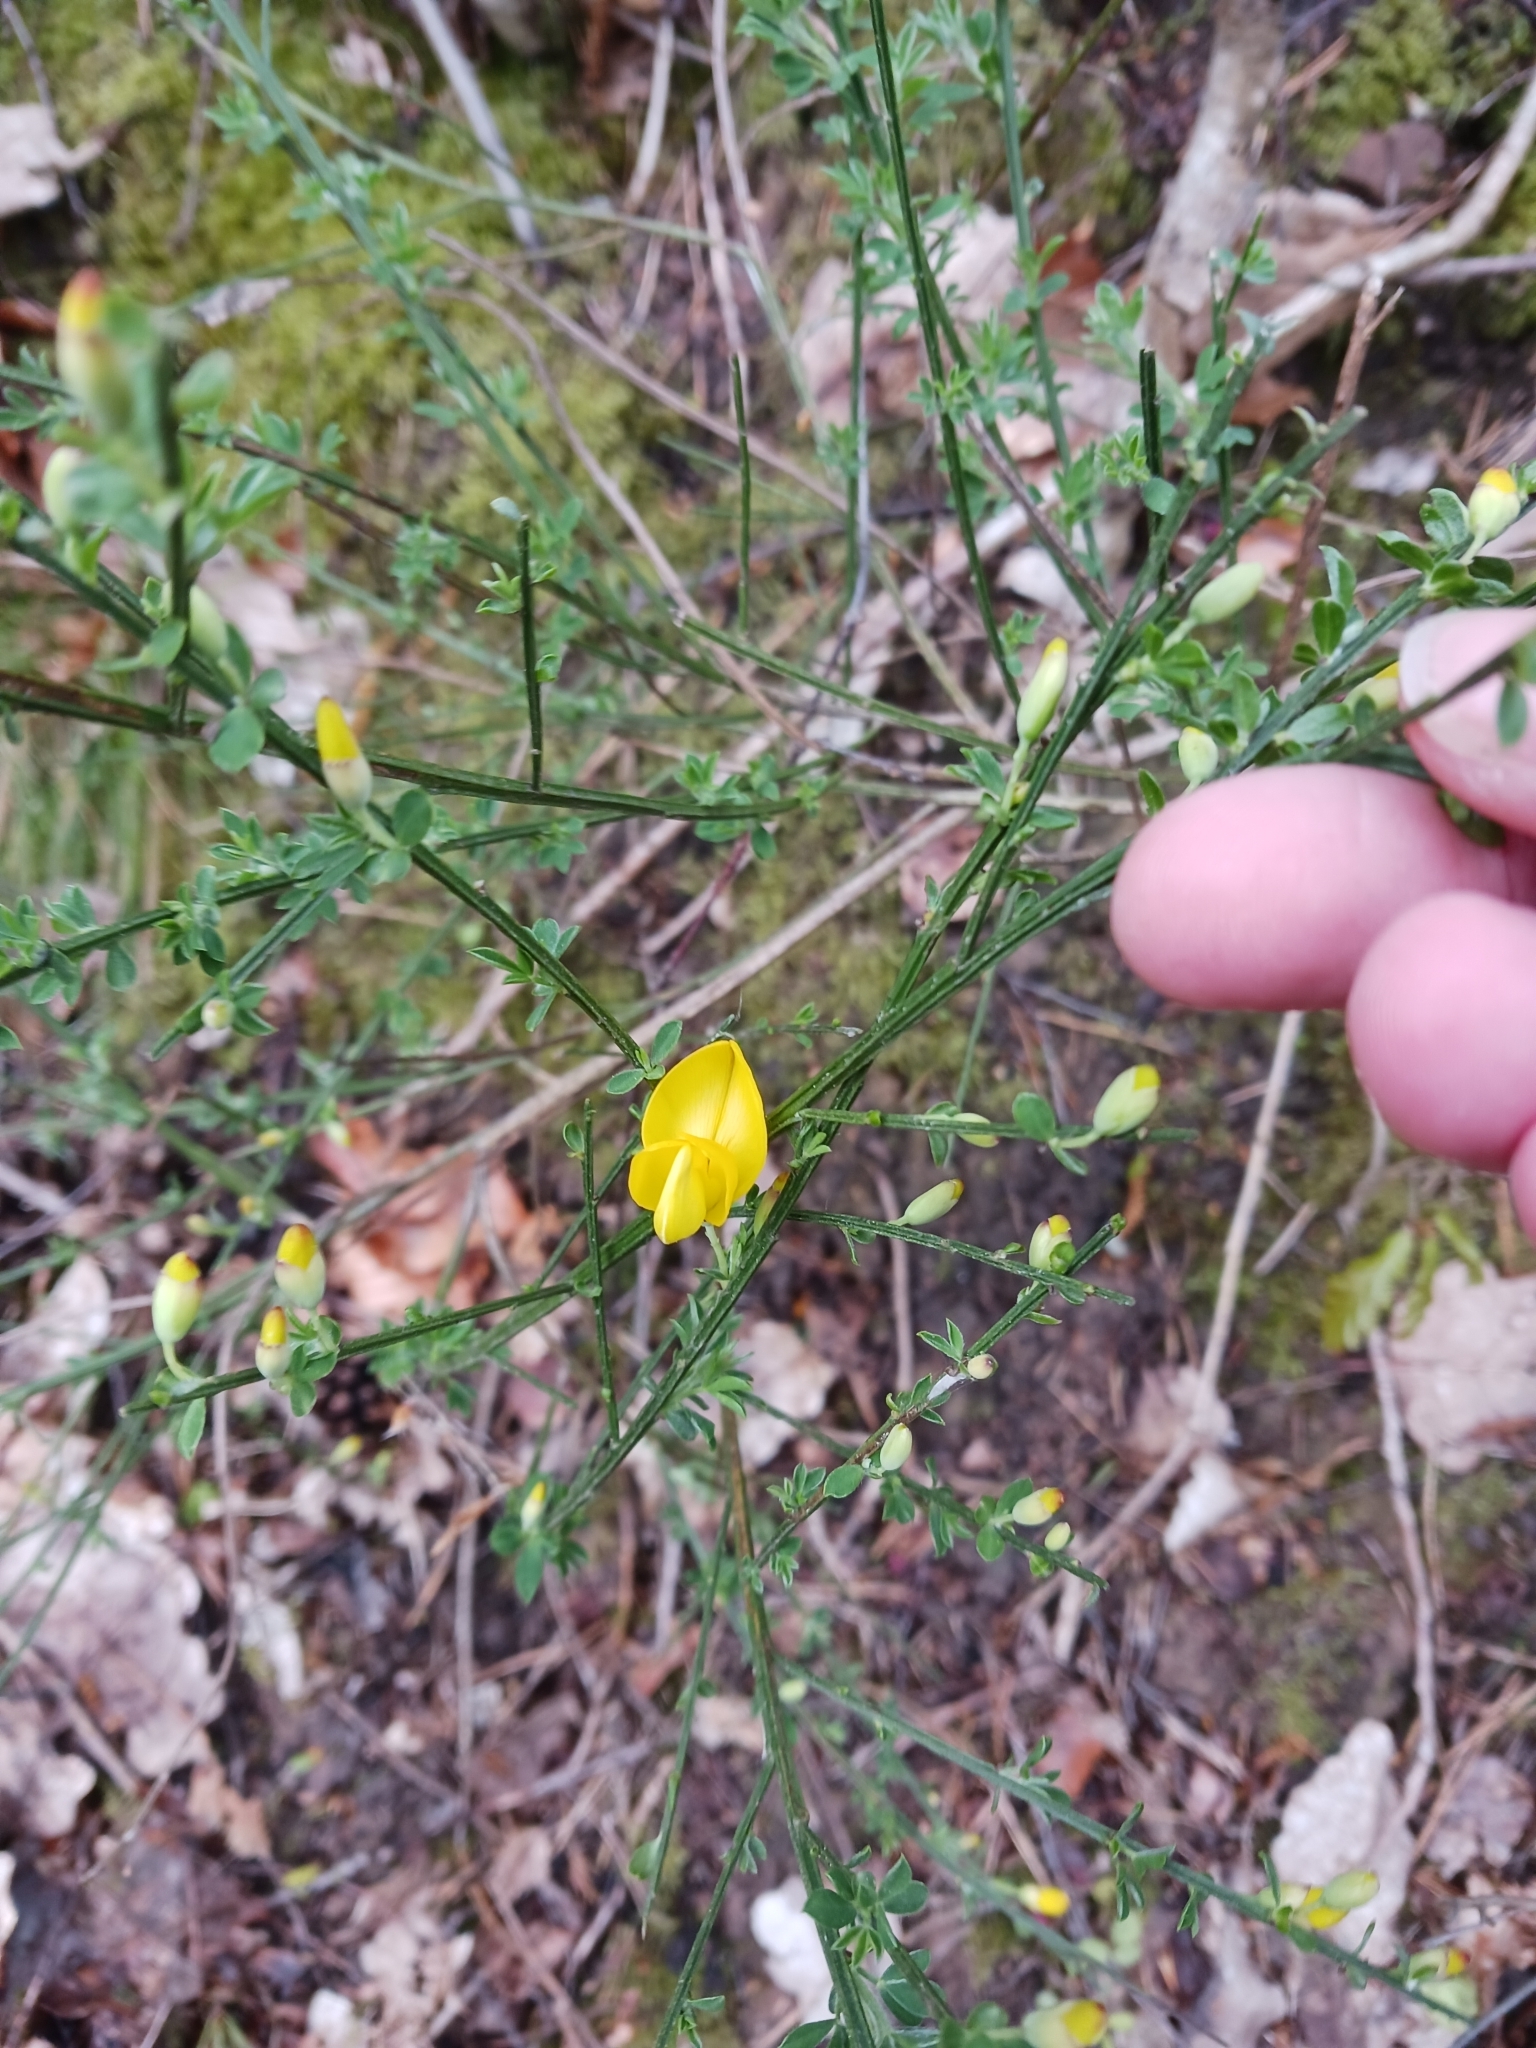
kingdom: Plantae
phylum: Tracheophyta
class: Magnoliopsida
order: Fabales
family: Fabaceae
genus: Cytisus
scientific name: Cytisus scoparius
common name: Scotch broom
